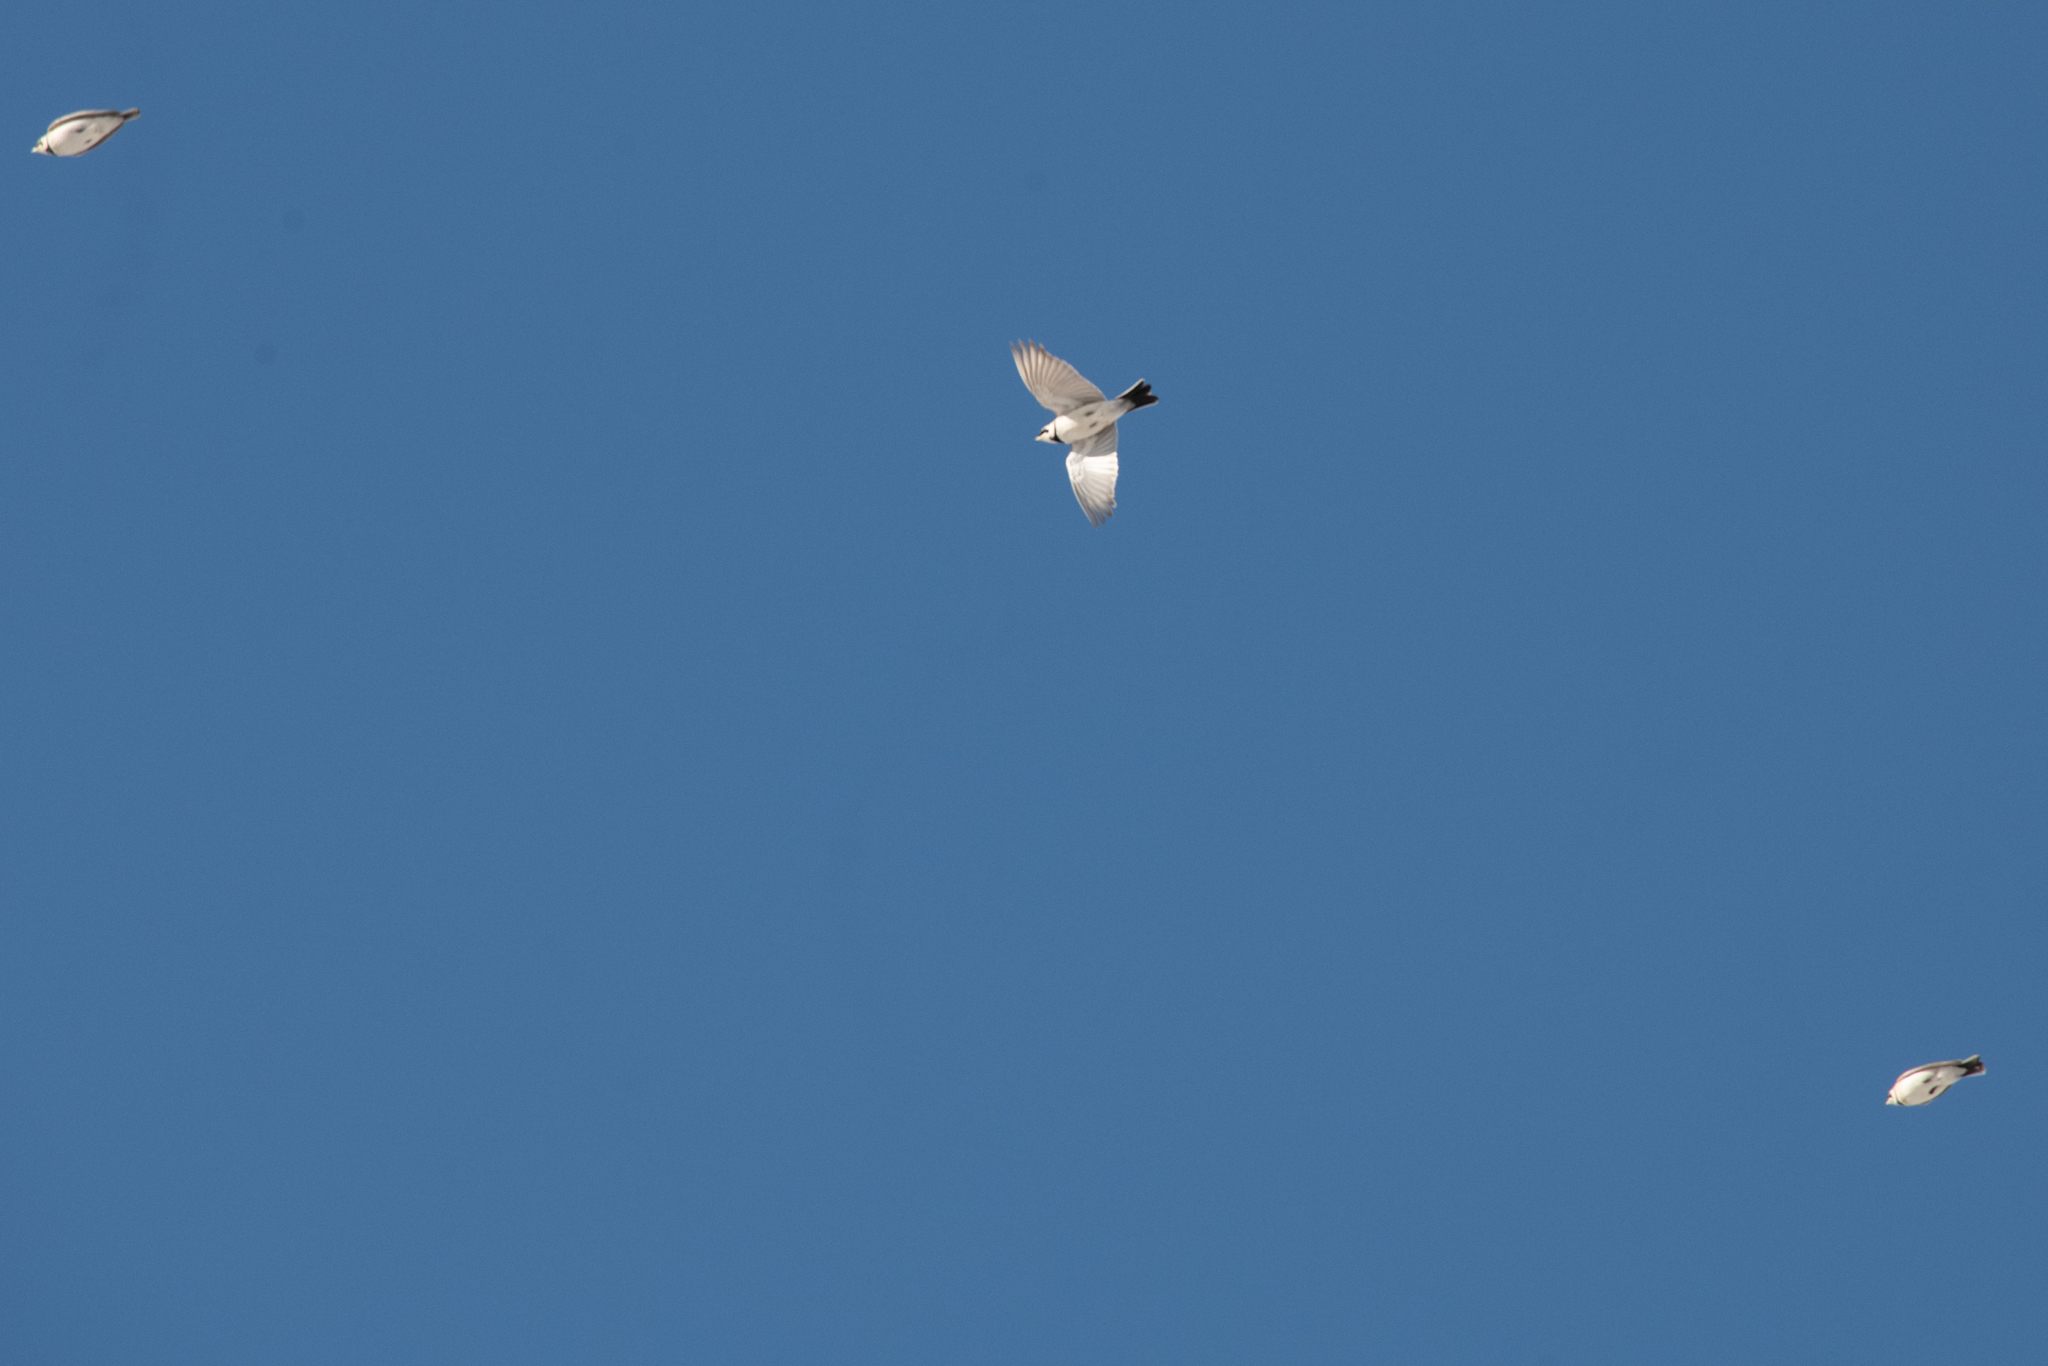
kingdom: Animalia
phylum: Chordata
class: Aves
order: Passeriformes
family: Alaudidae
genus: Eremophila
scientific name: Eremophila alpestris
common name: Horned lark
